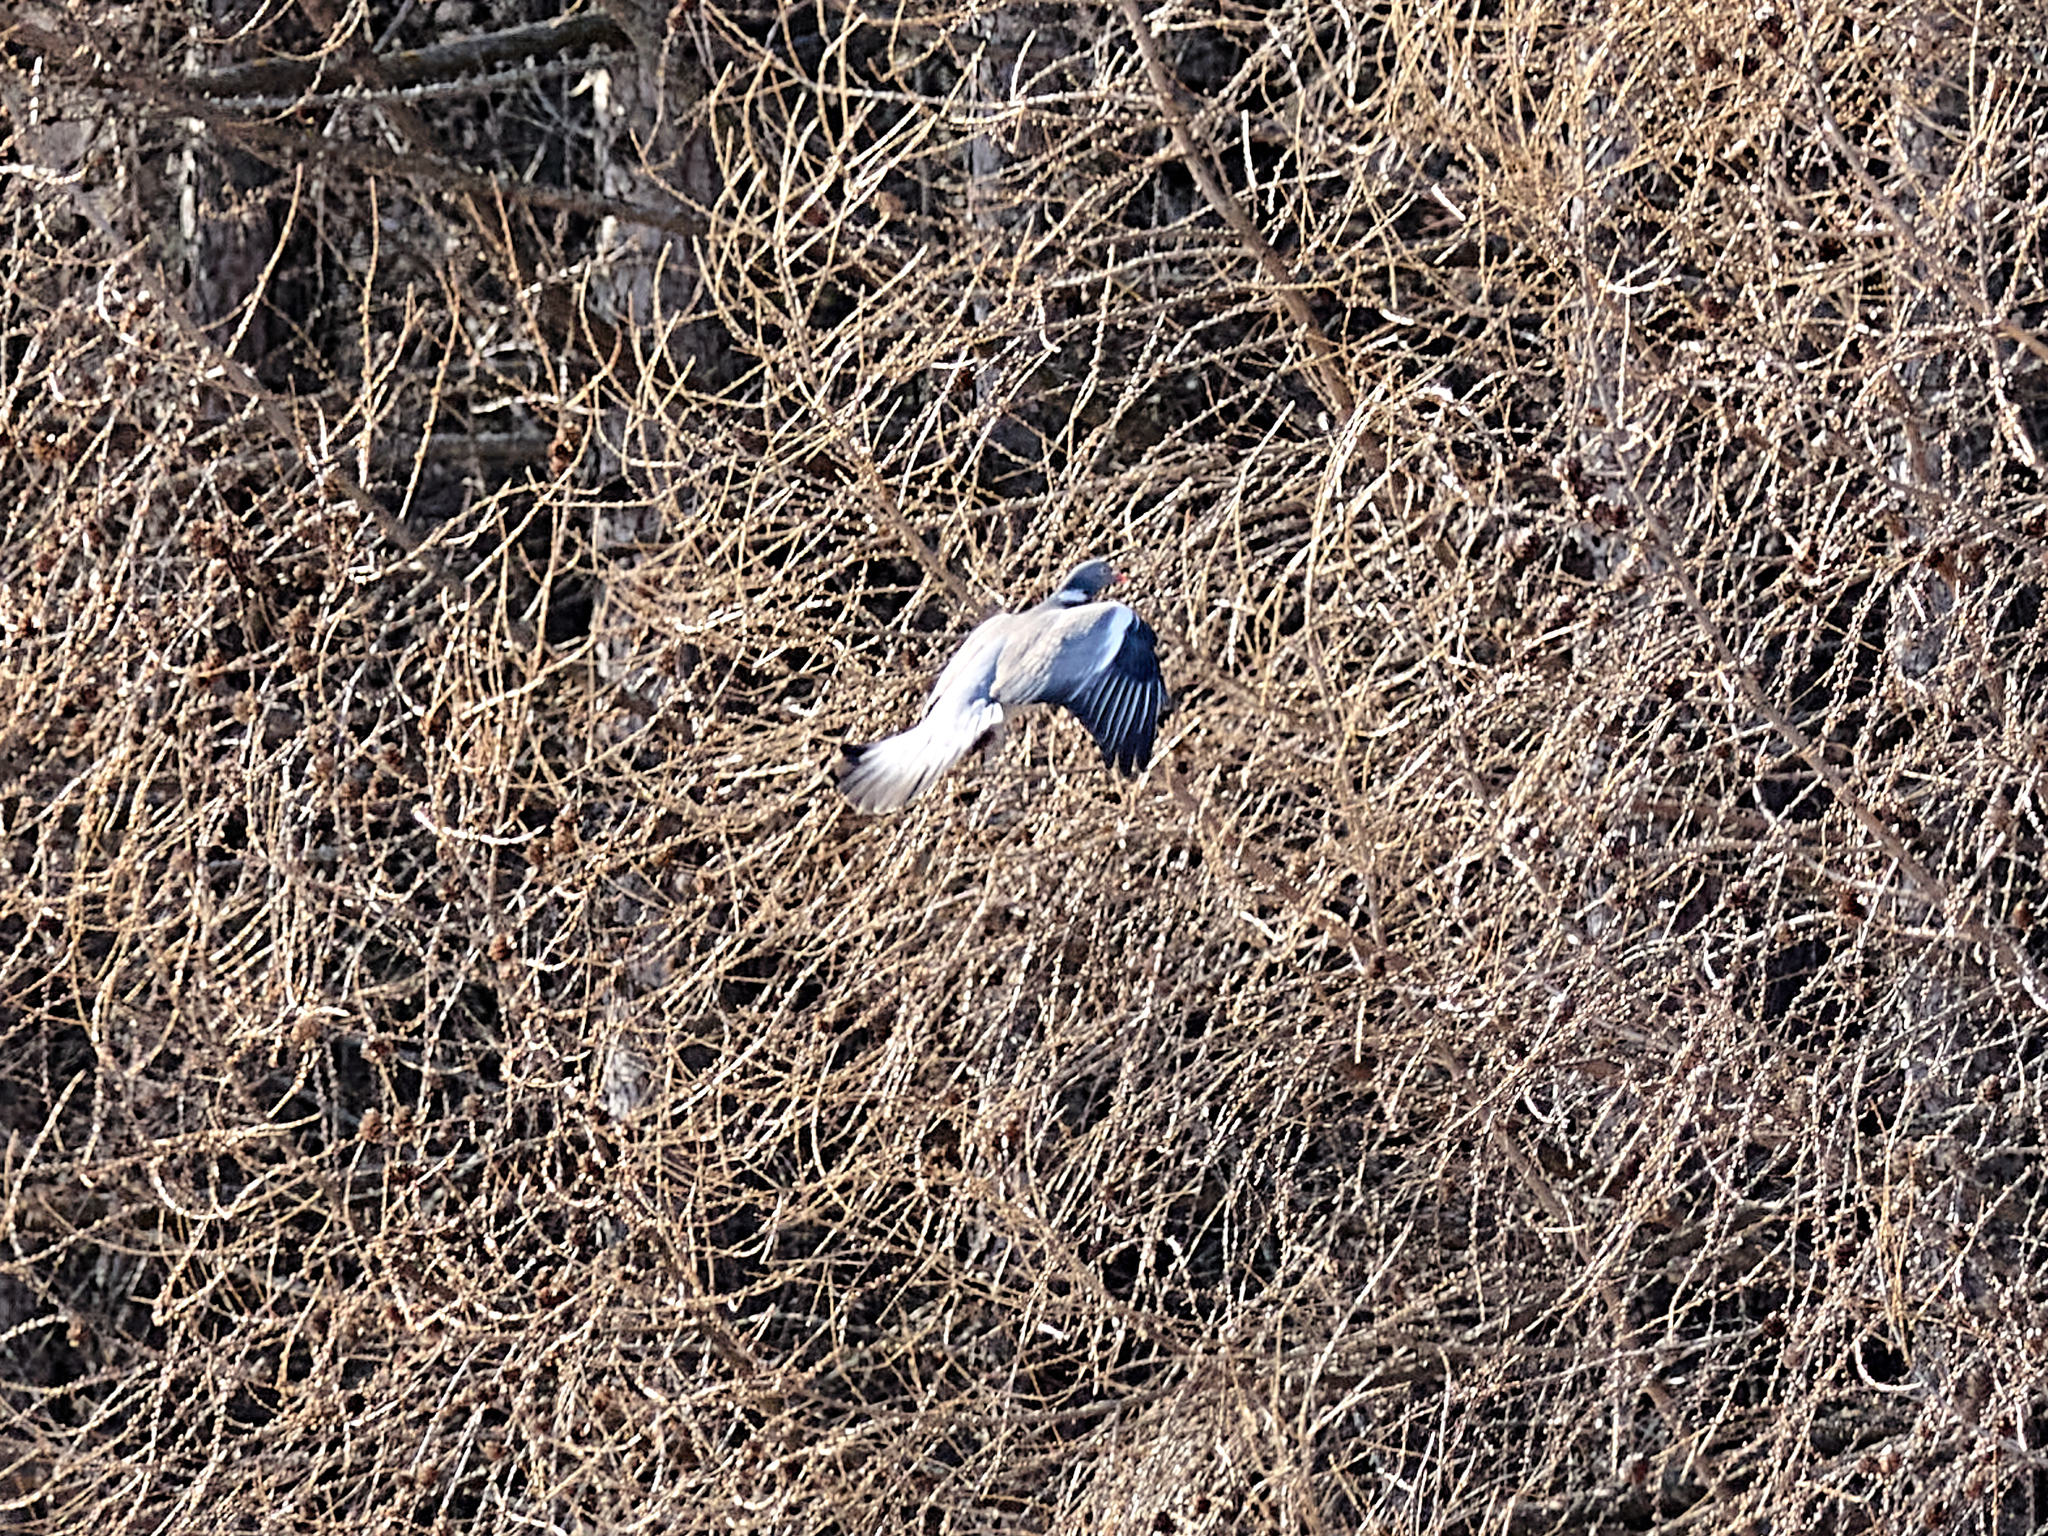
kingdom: Animalia
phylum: Chordata
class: Aves
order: Columbiformes
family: Columbidae
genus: Columba
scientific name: Columba palumbus
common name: Common wood pigeon
